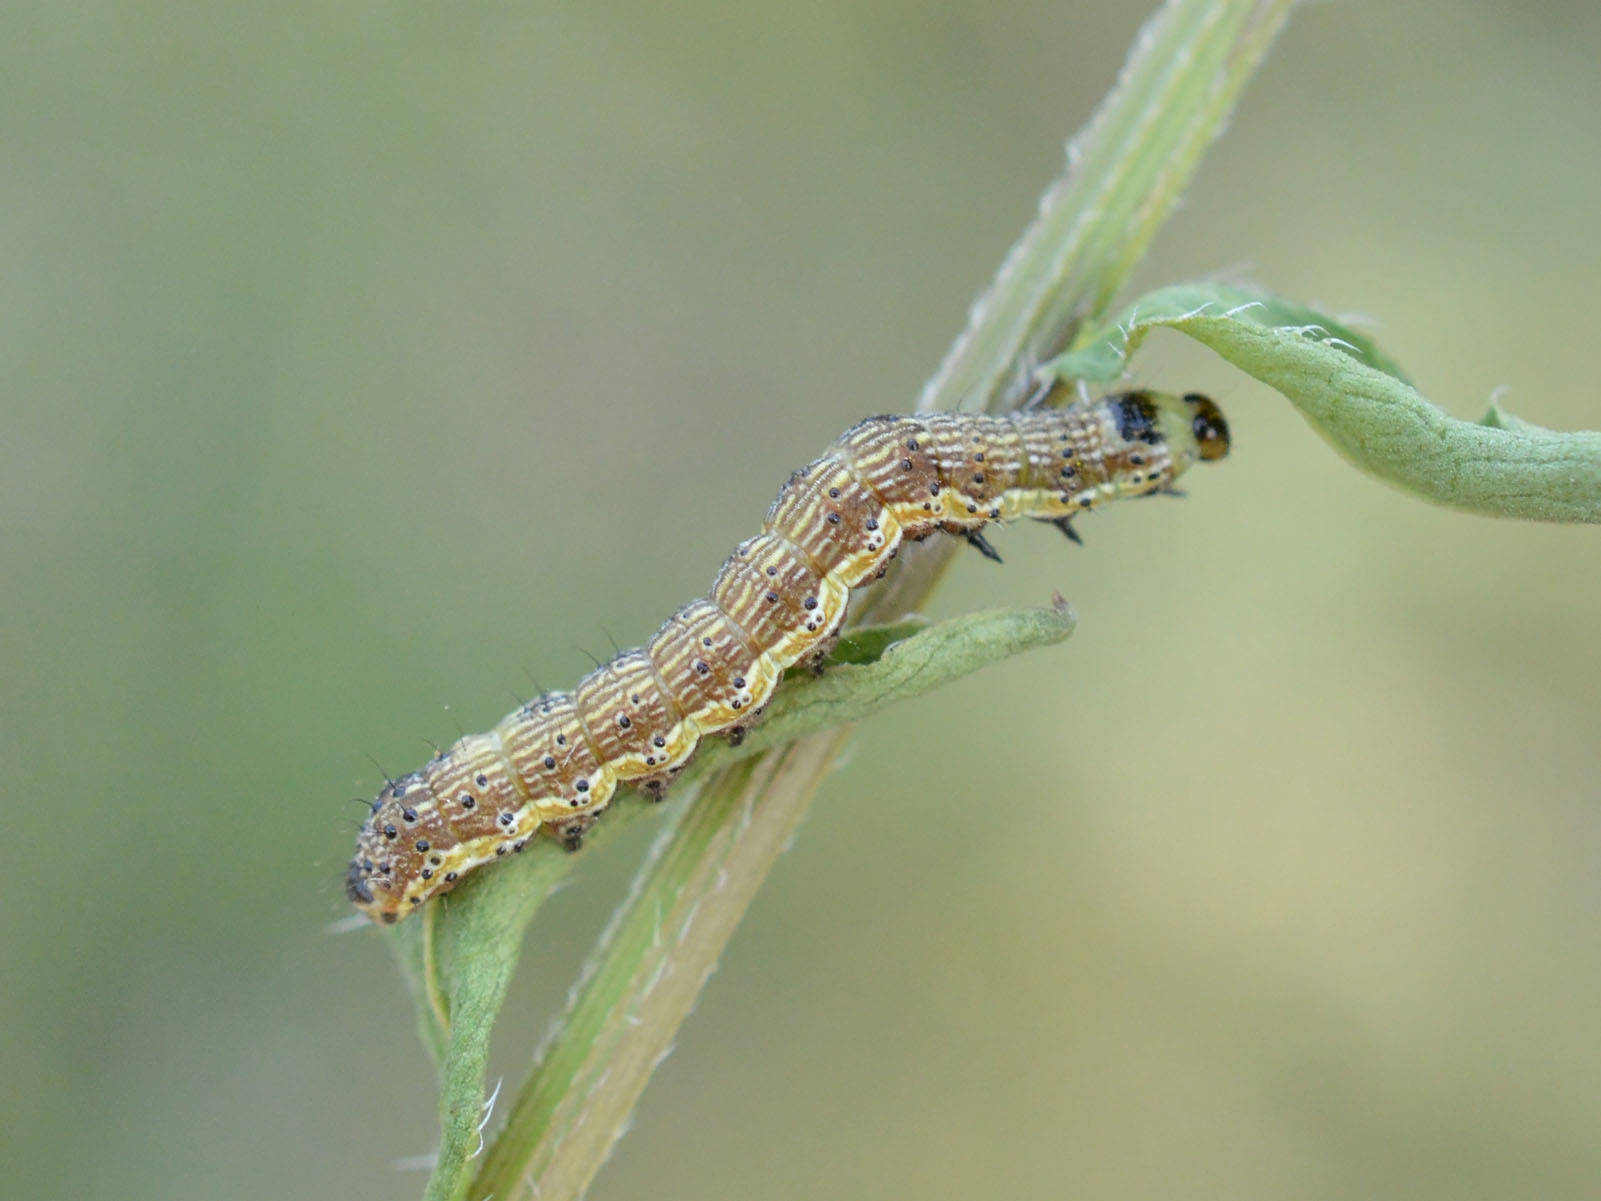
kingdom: Animalia
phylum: Arthropoda
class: Insecta
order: Lepidoptera
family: Noctuidae
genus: Helicoverpa
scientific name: Helicoverpa armigera
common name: Cotton bollworm
